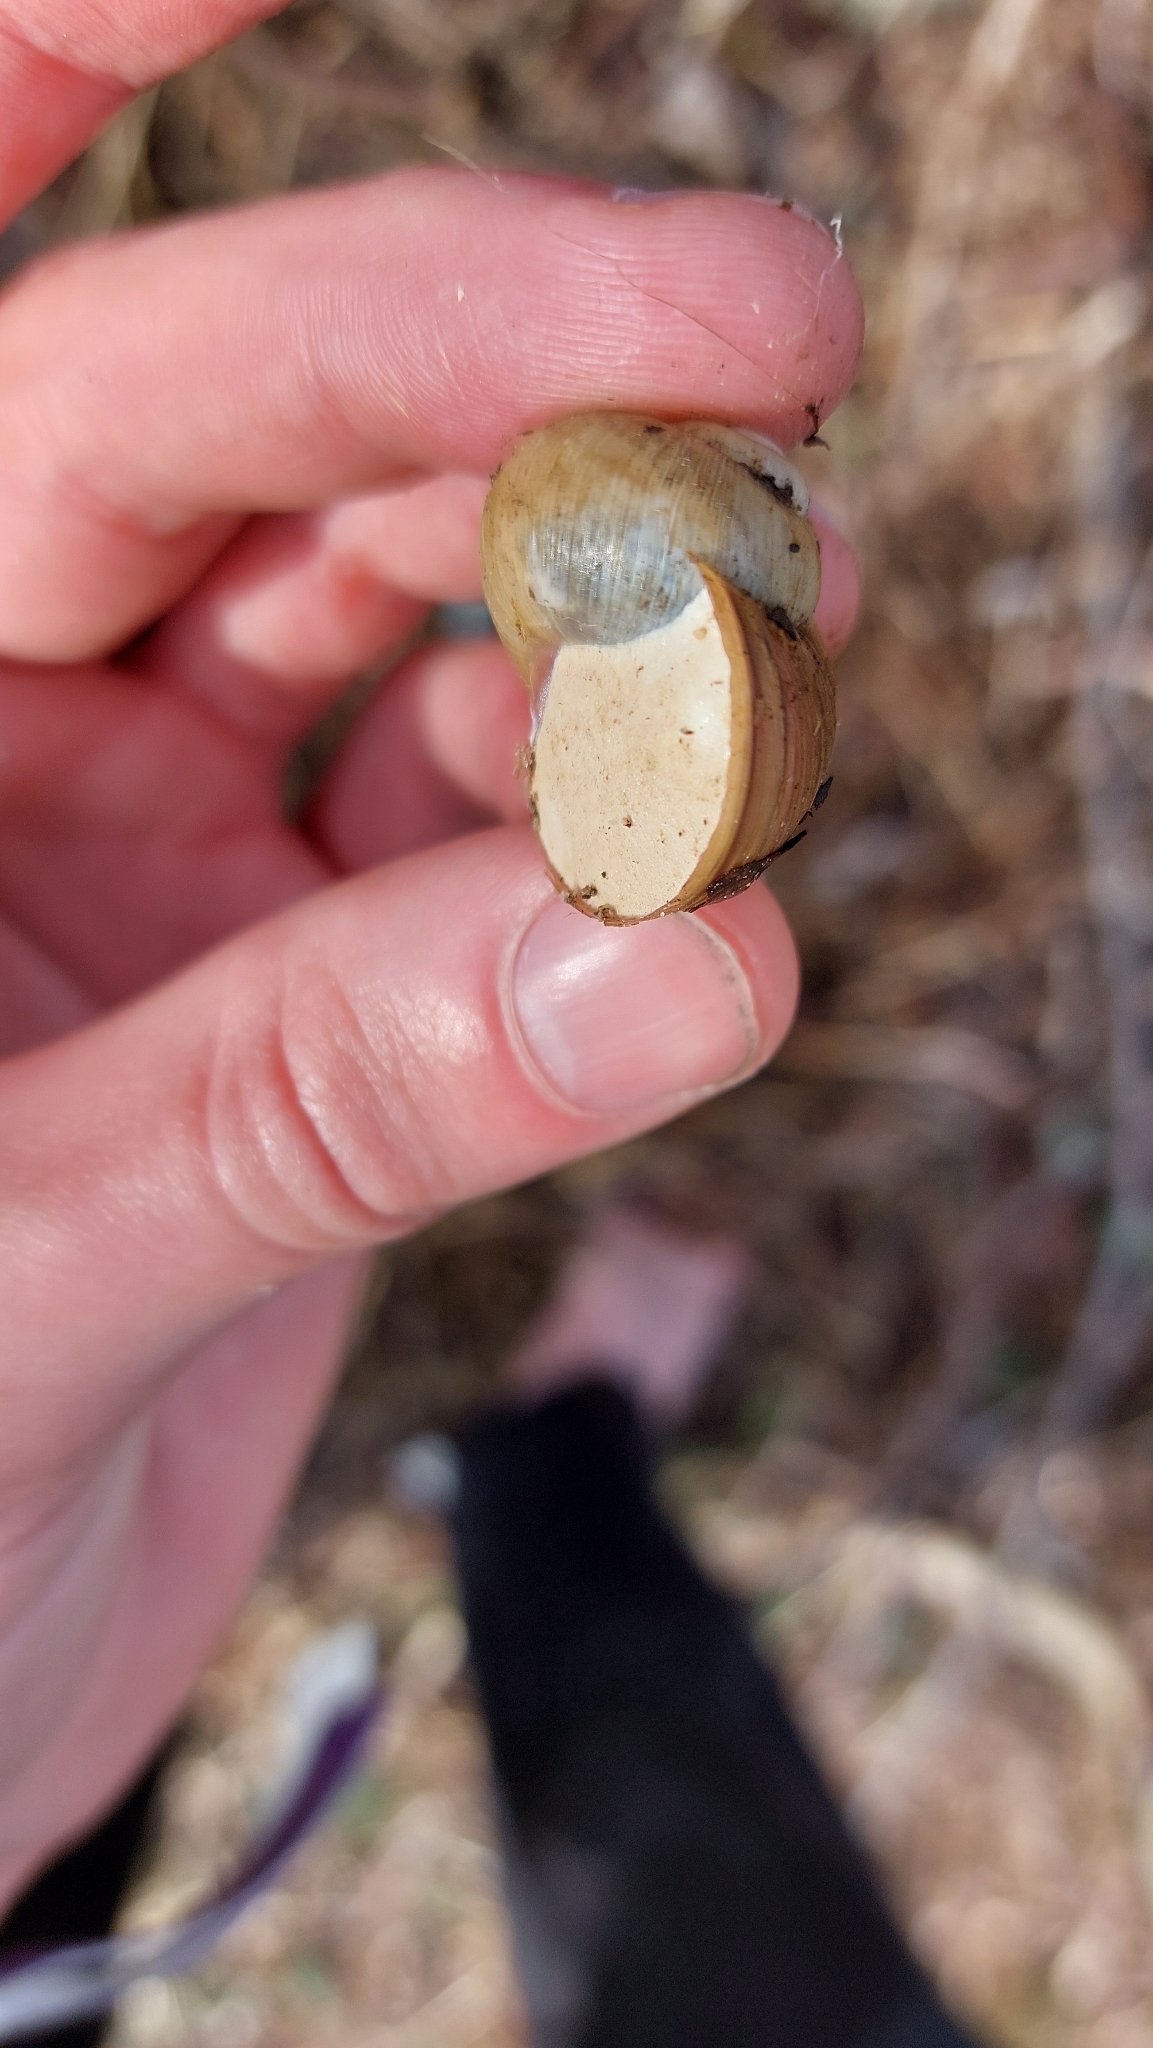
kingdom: Animalia
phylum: Mollusca
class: Gastropoda
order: Stylommatophora
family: Helicidae
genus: Helix
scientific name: Helix pomatia
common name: Roman snail
